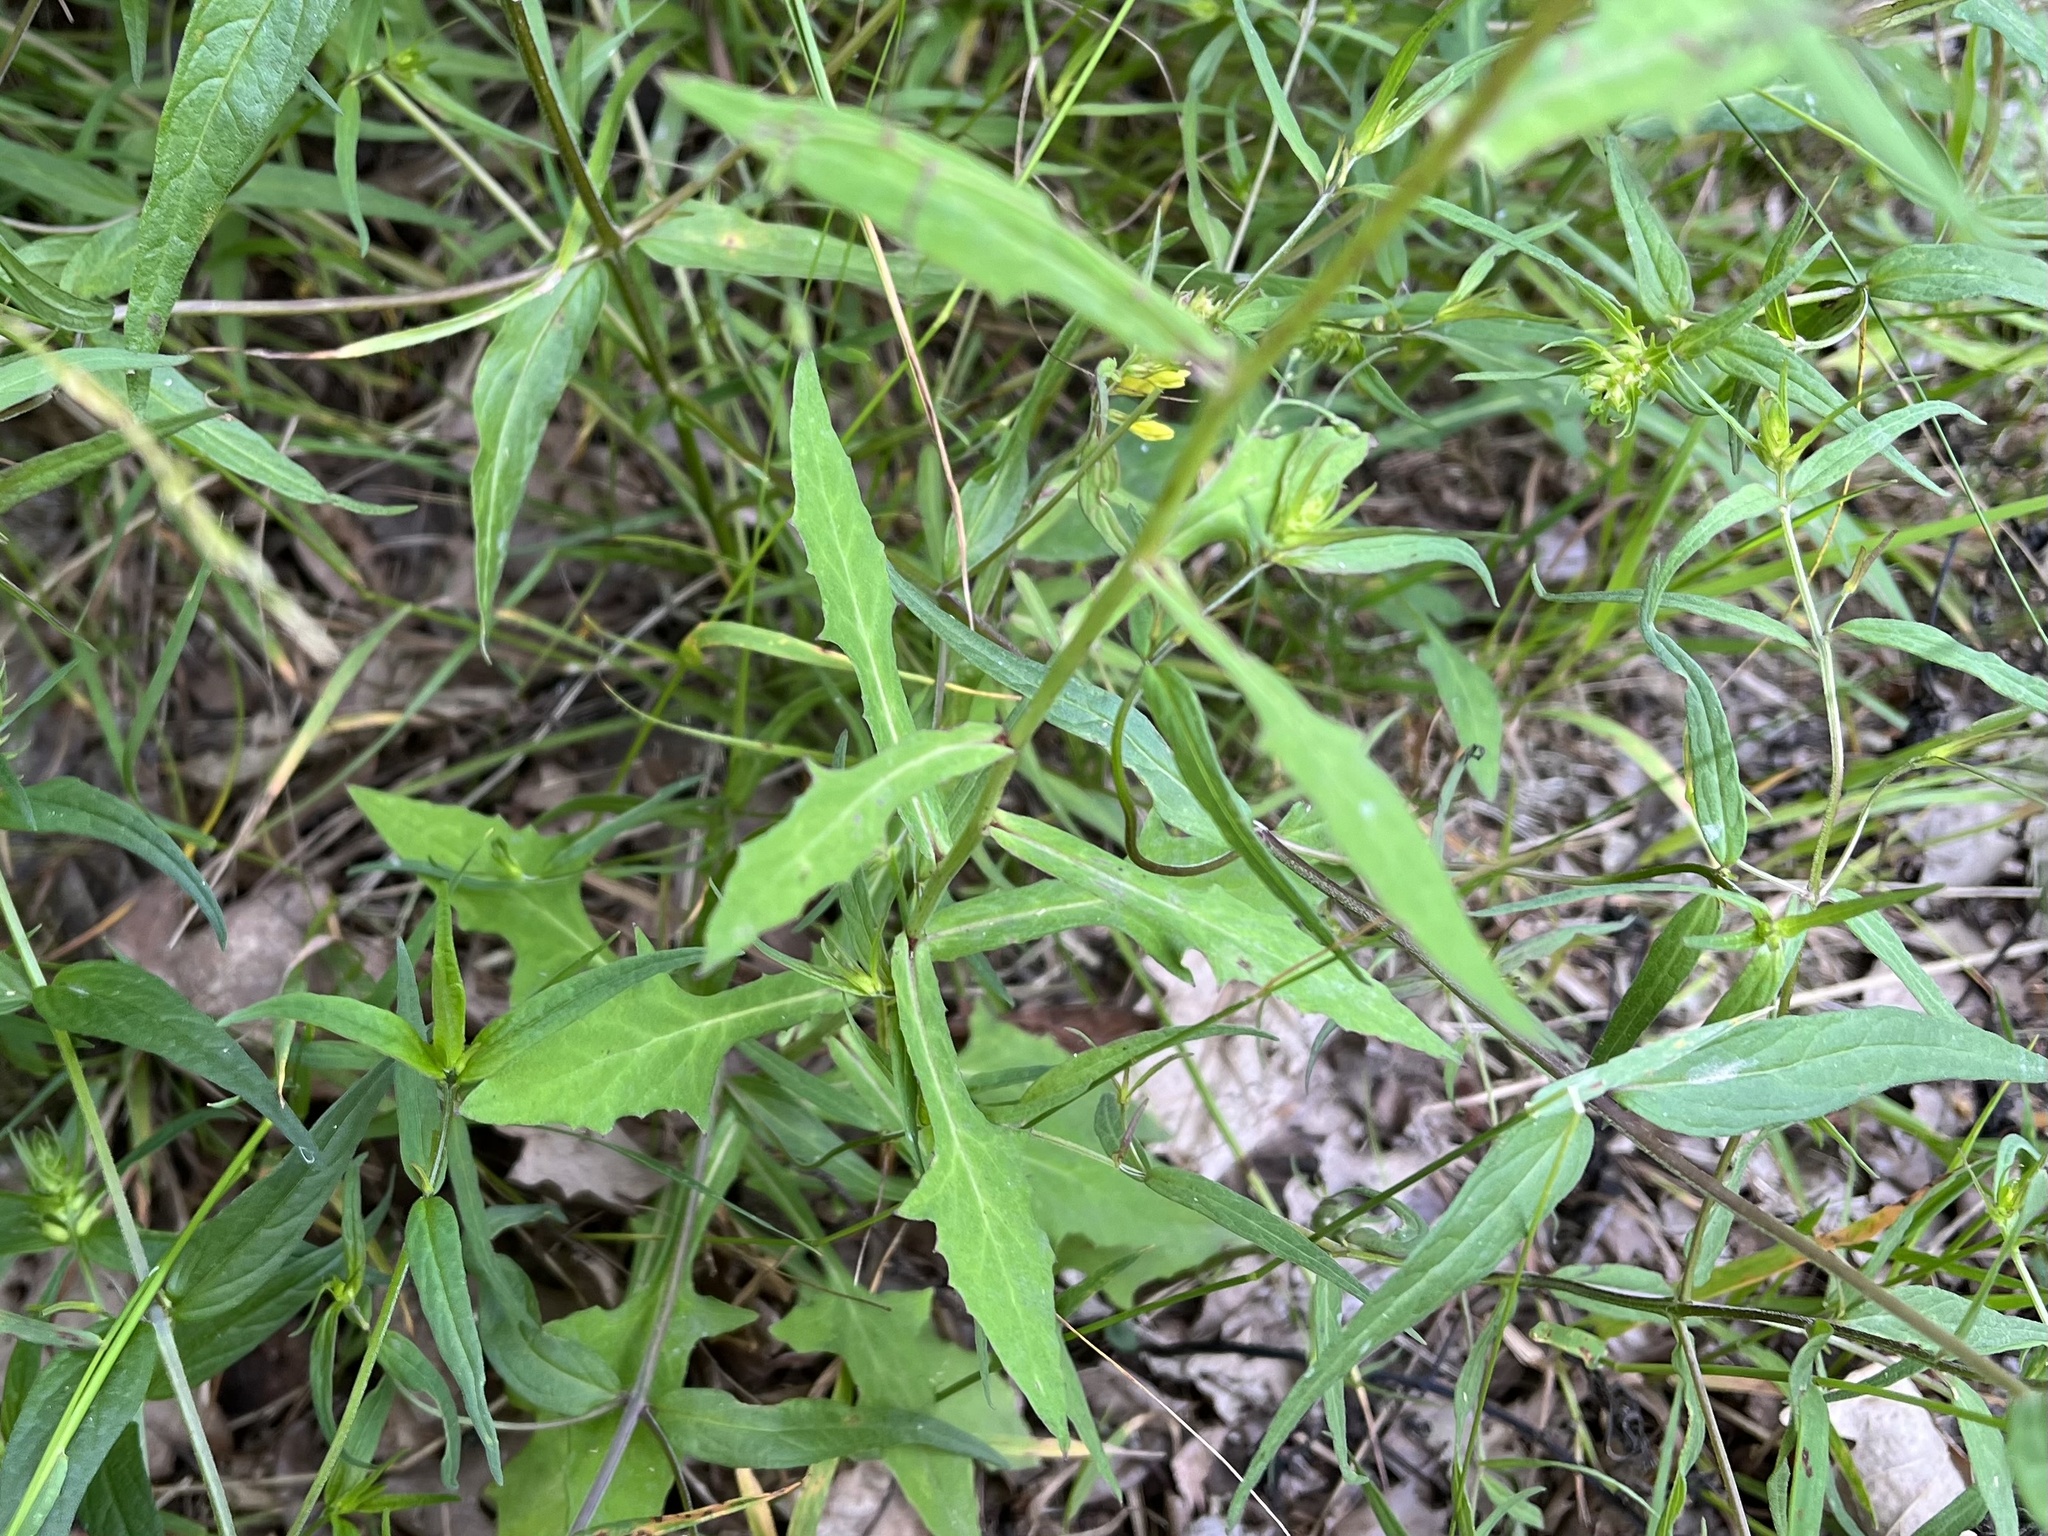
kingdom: Plantae
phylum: Tracheophyta
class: Magnoliopsida
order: Asterales
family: Asteraceae
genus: Prenanthes
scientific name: Prenanthes purpurea
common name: Purple lettuce
